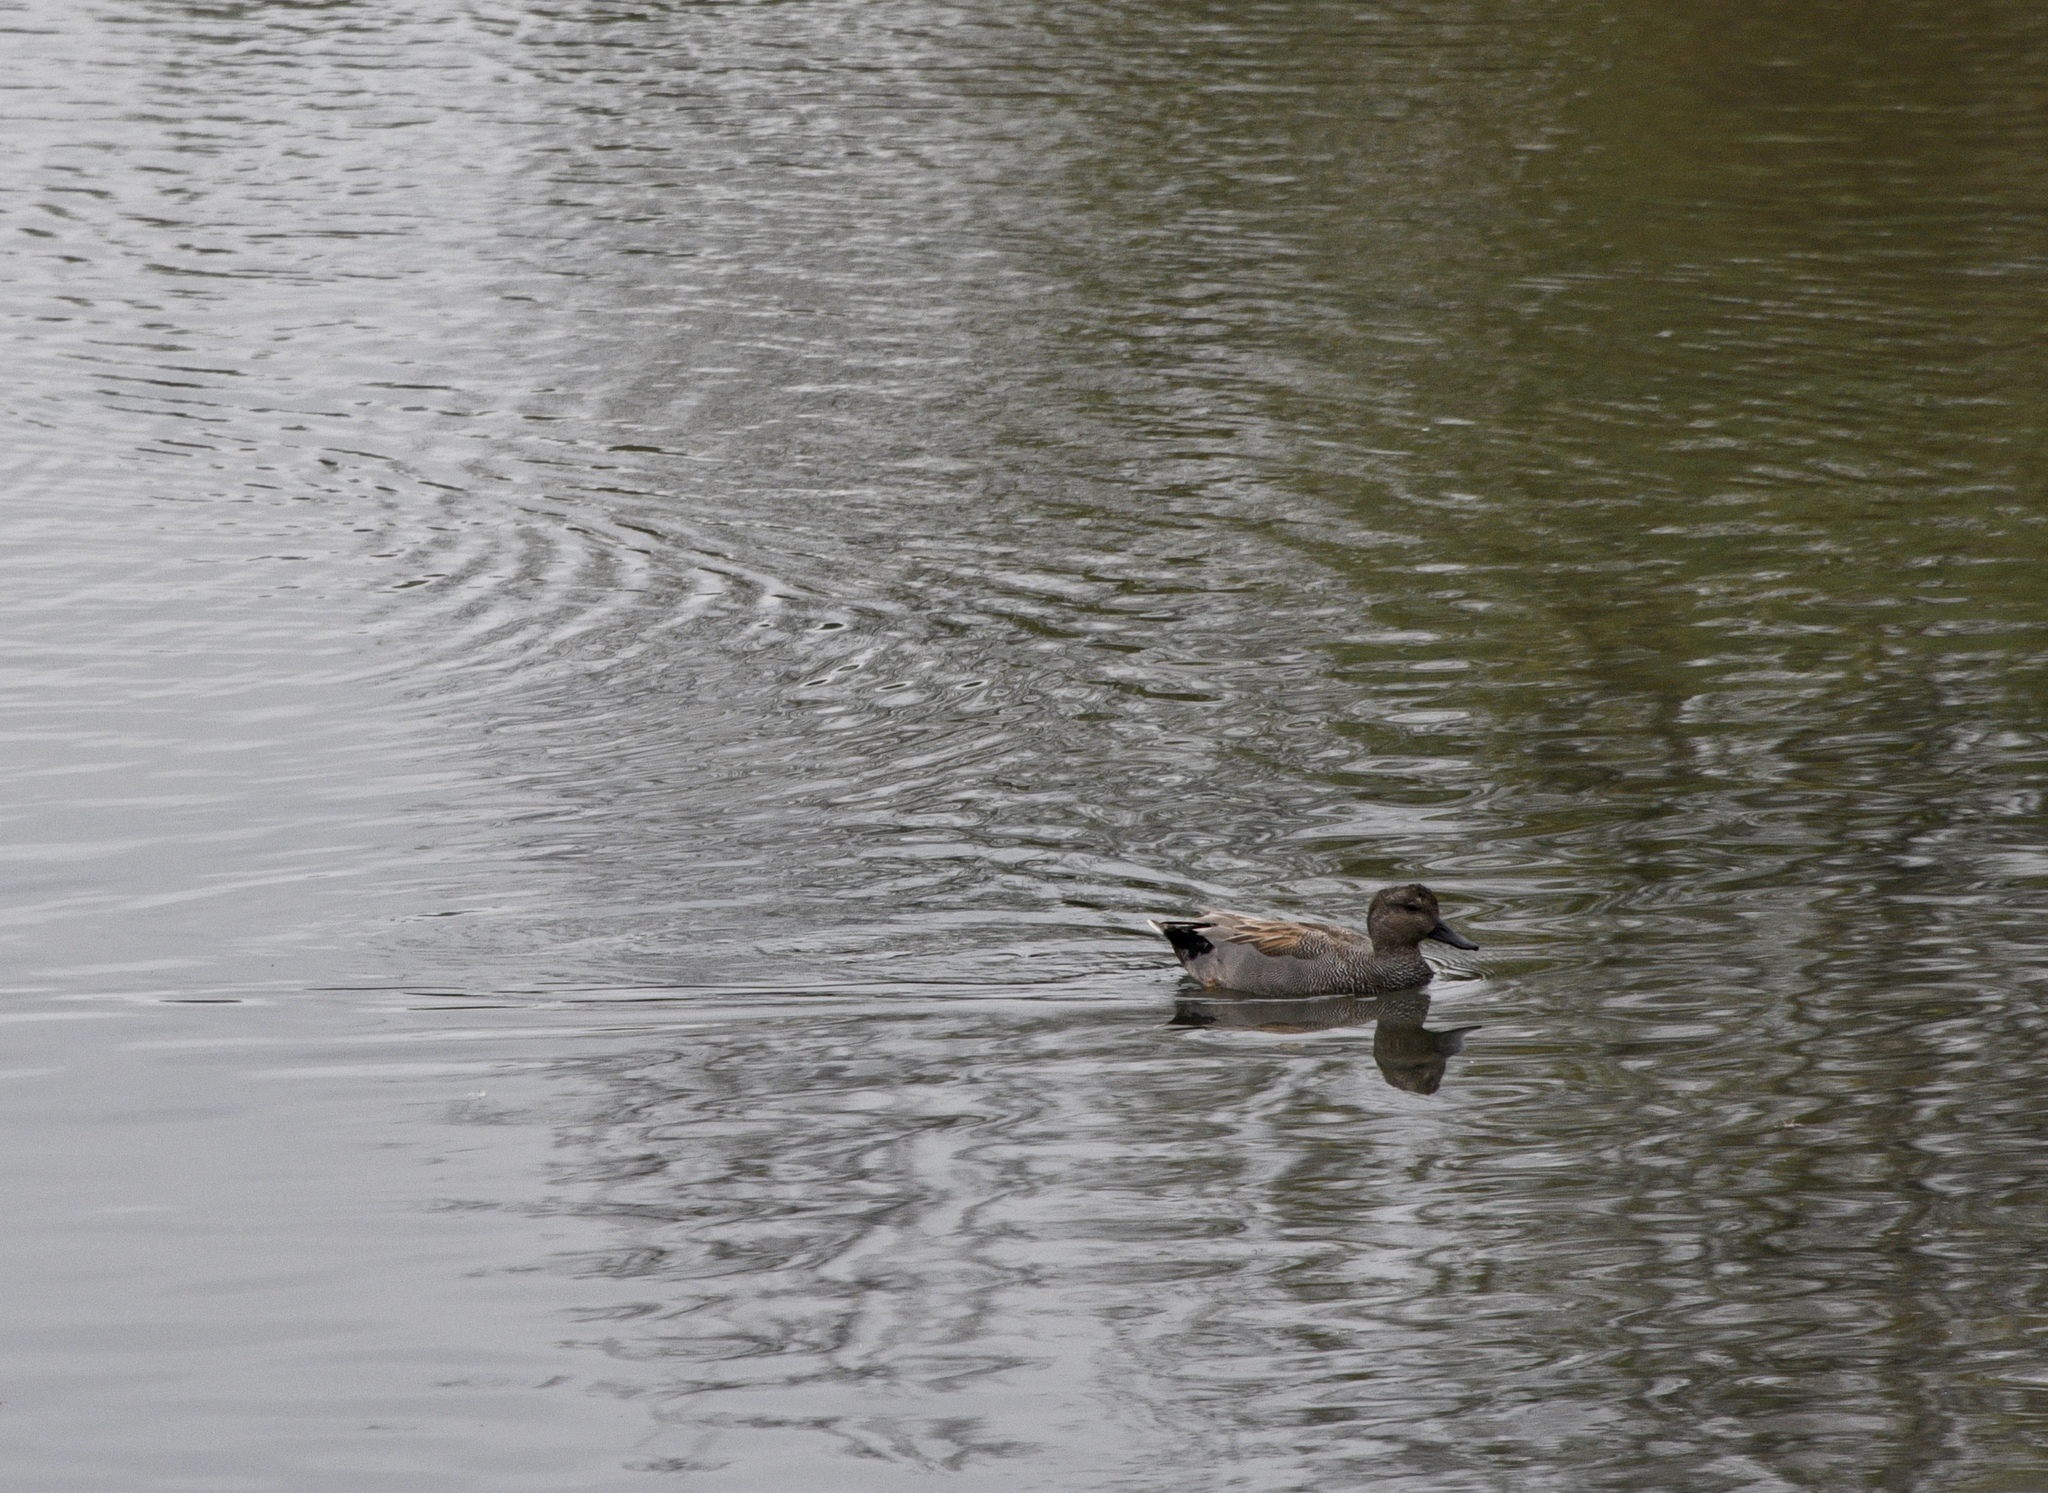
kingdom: Animalia
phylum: Chordata
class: Aves
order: Anseriformes
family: Anatidae
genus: Mareca
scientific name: Mareca strepera
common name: Gadwall
